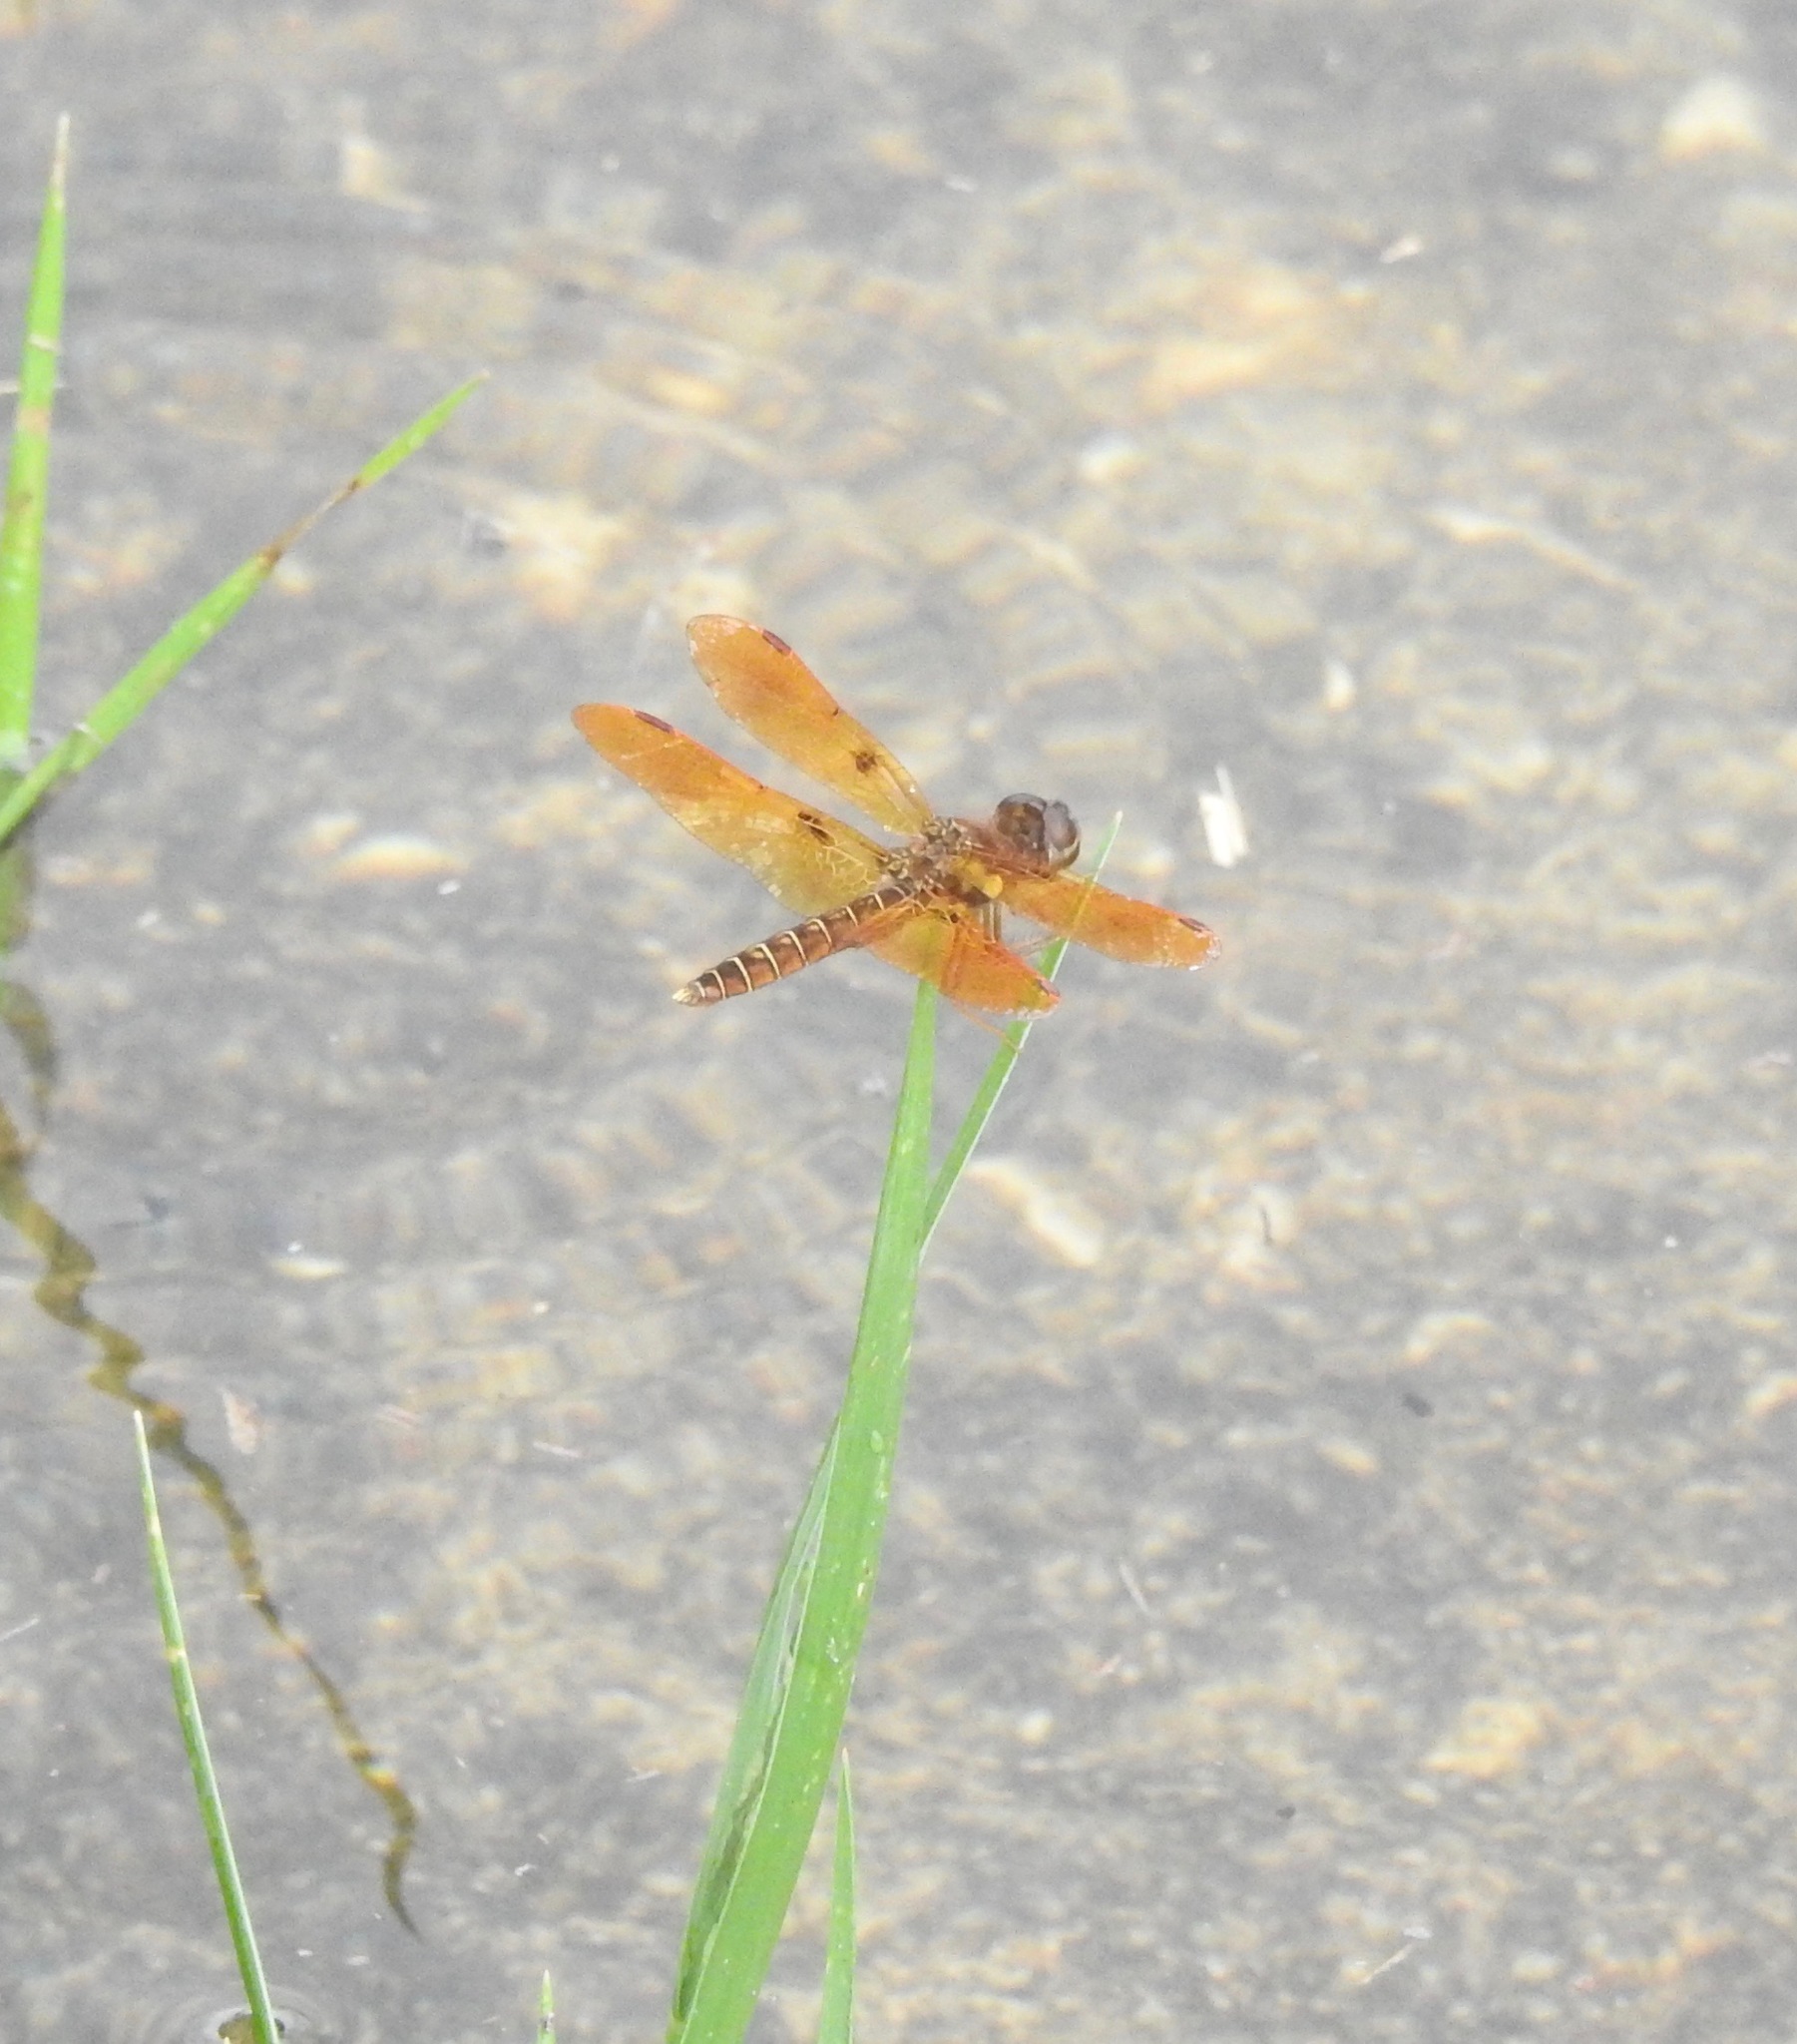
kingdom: Animalia
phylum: Arthropoda
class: Insecta
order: Odonata
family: Libellulidae
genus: Perithemis
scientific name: Perithemis tenera
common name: Eastern amberwing
